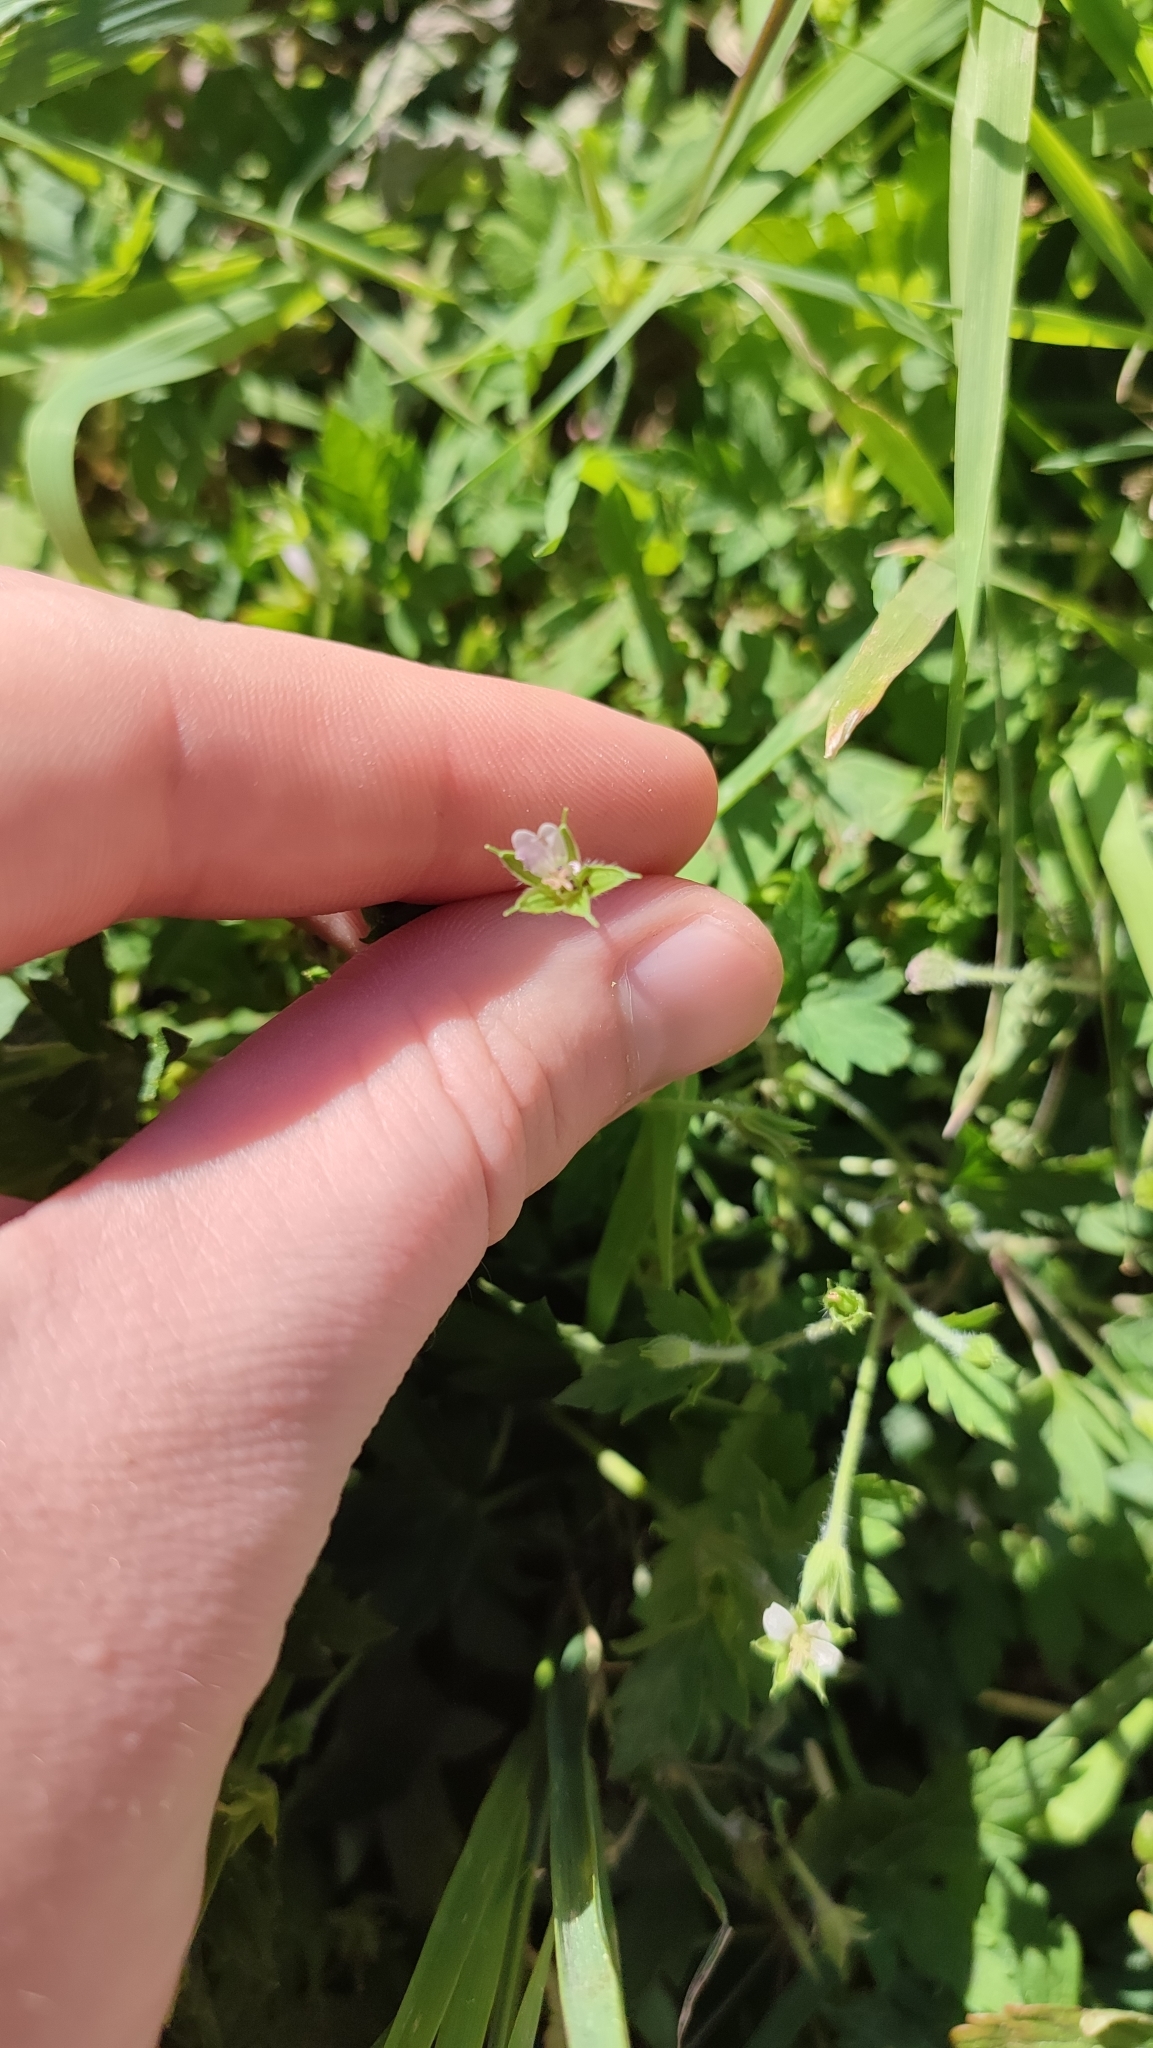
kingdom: Plantae
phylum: Tracheophyta
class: Magnoliopsida
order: Geraniales
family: Geraniaceae
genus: Geranium
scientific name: Geranium sibiricum
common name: Siberian crane's-bill
